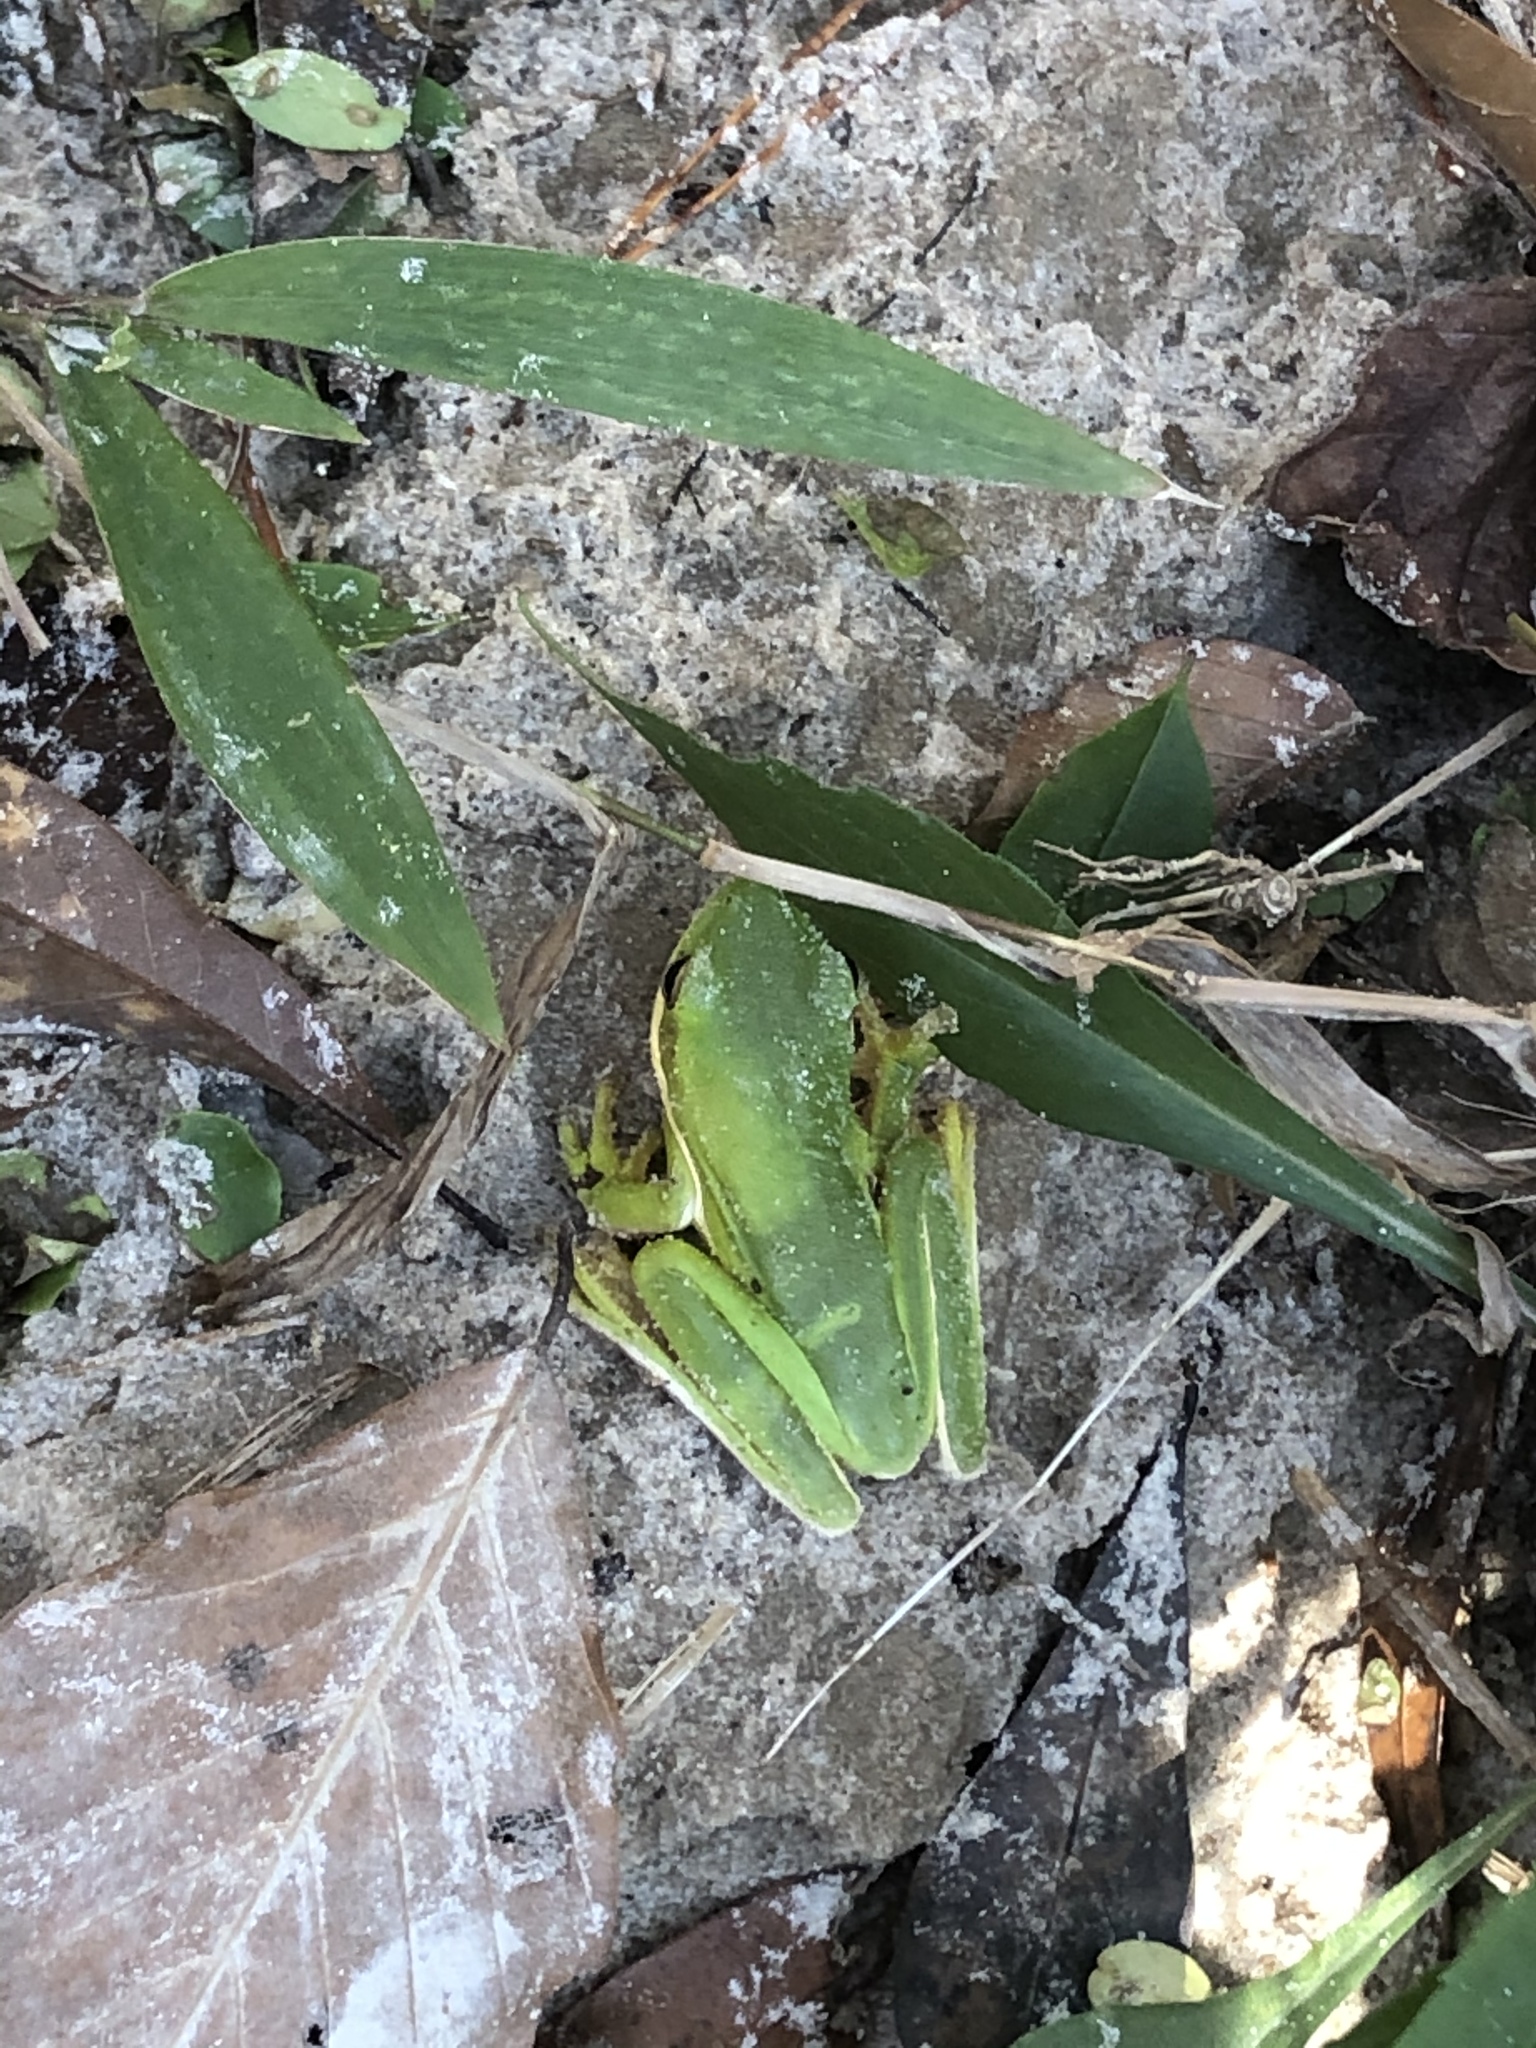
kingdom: Animalia
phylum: Chordata
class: Amphibia
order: Anura
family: Hylidae
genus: Dryophytes
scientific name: Dryophytes cinereus
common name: Green treefrog
